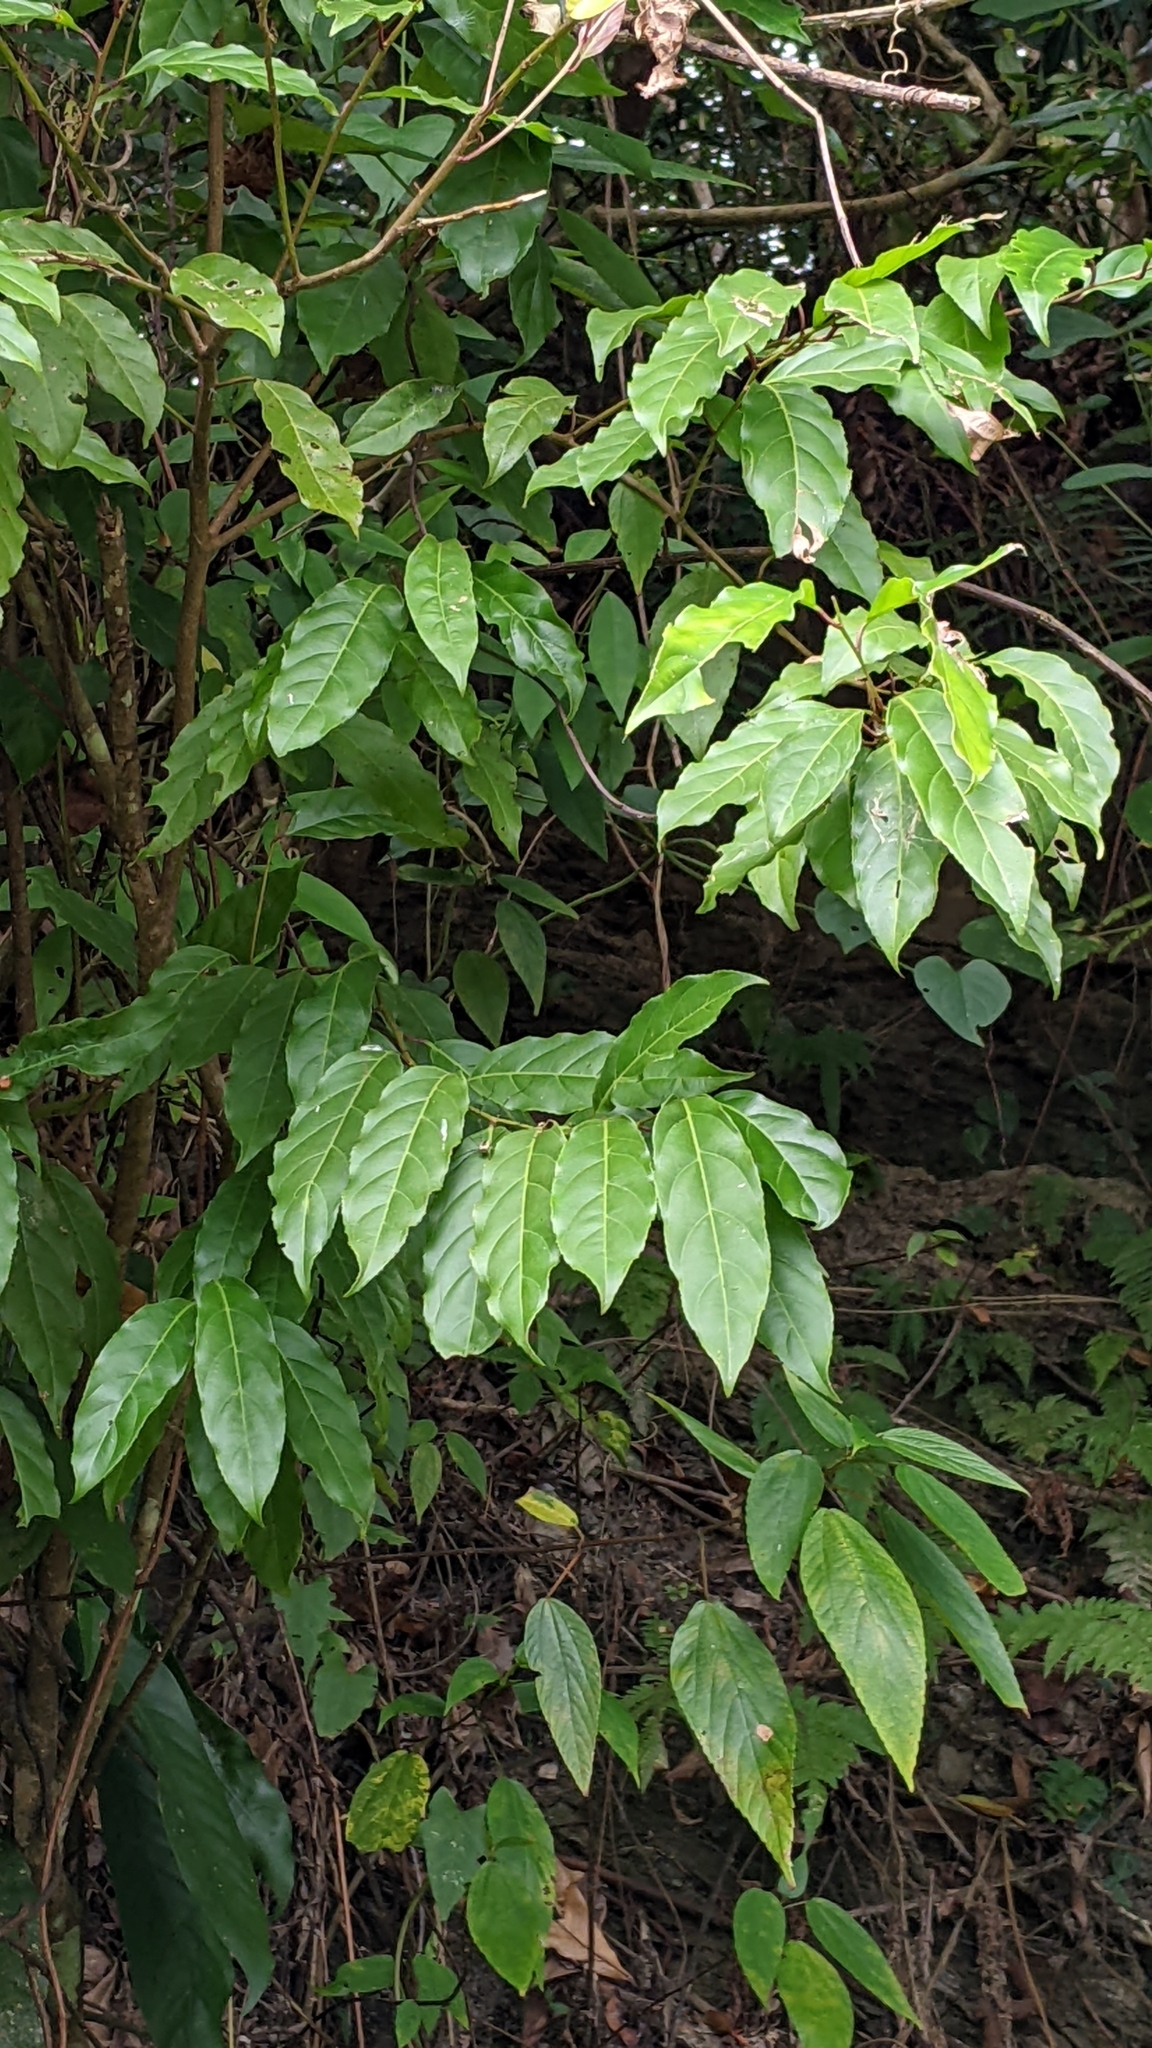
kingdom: Plantae
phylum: Tracheophyta
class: Magnoliopsida
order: Saxifragales
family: Iteaceae
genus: Itea
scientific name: Itea parviflora
